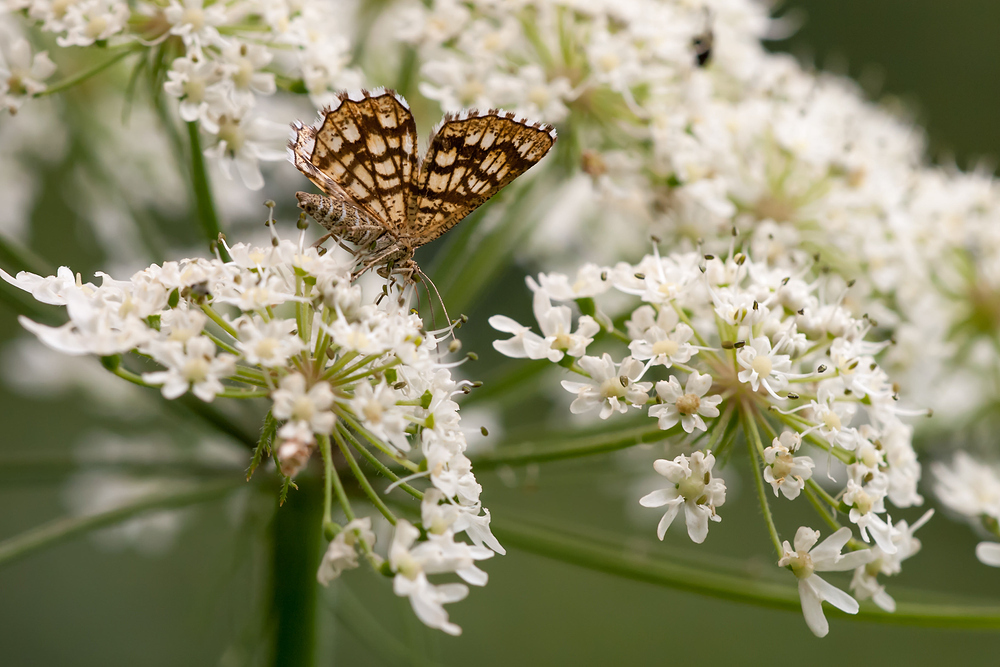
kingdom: Animalia
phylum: Arthropoda
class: Insecta
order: Lepidoptera
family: Geometridae
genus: Chiasmia
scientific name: Chiasmia clathrata
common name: Latticed heath
